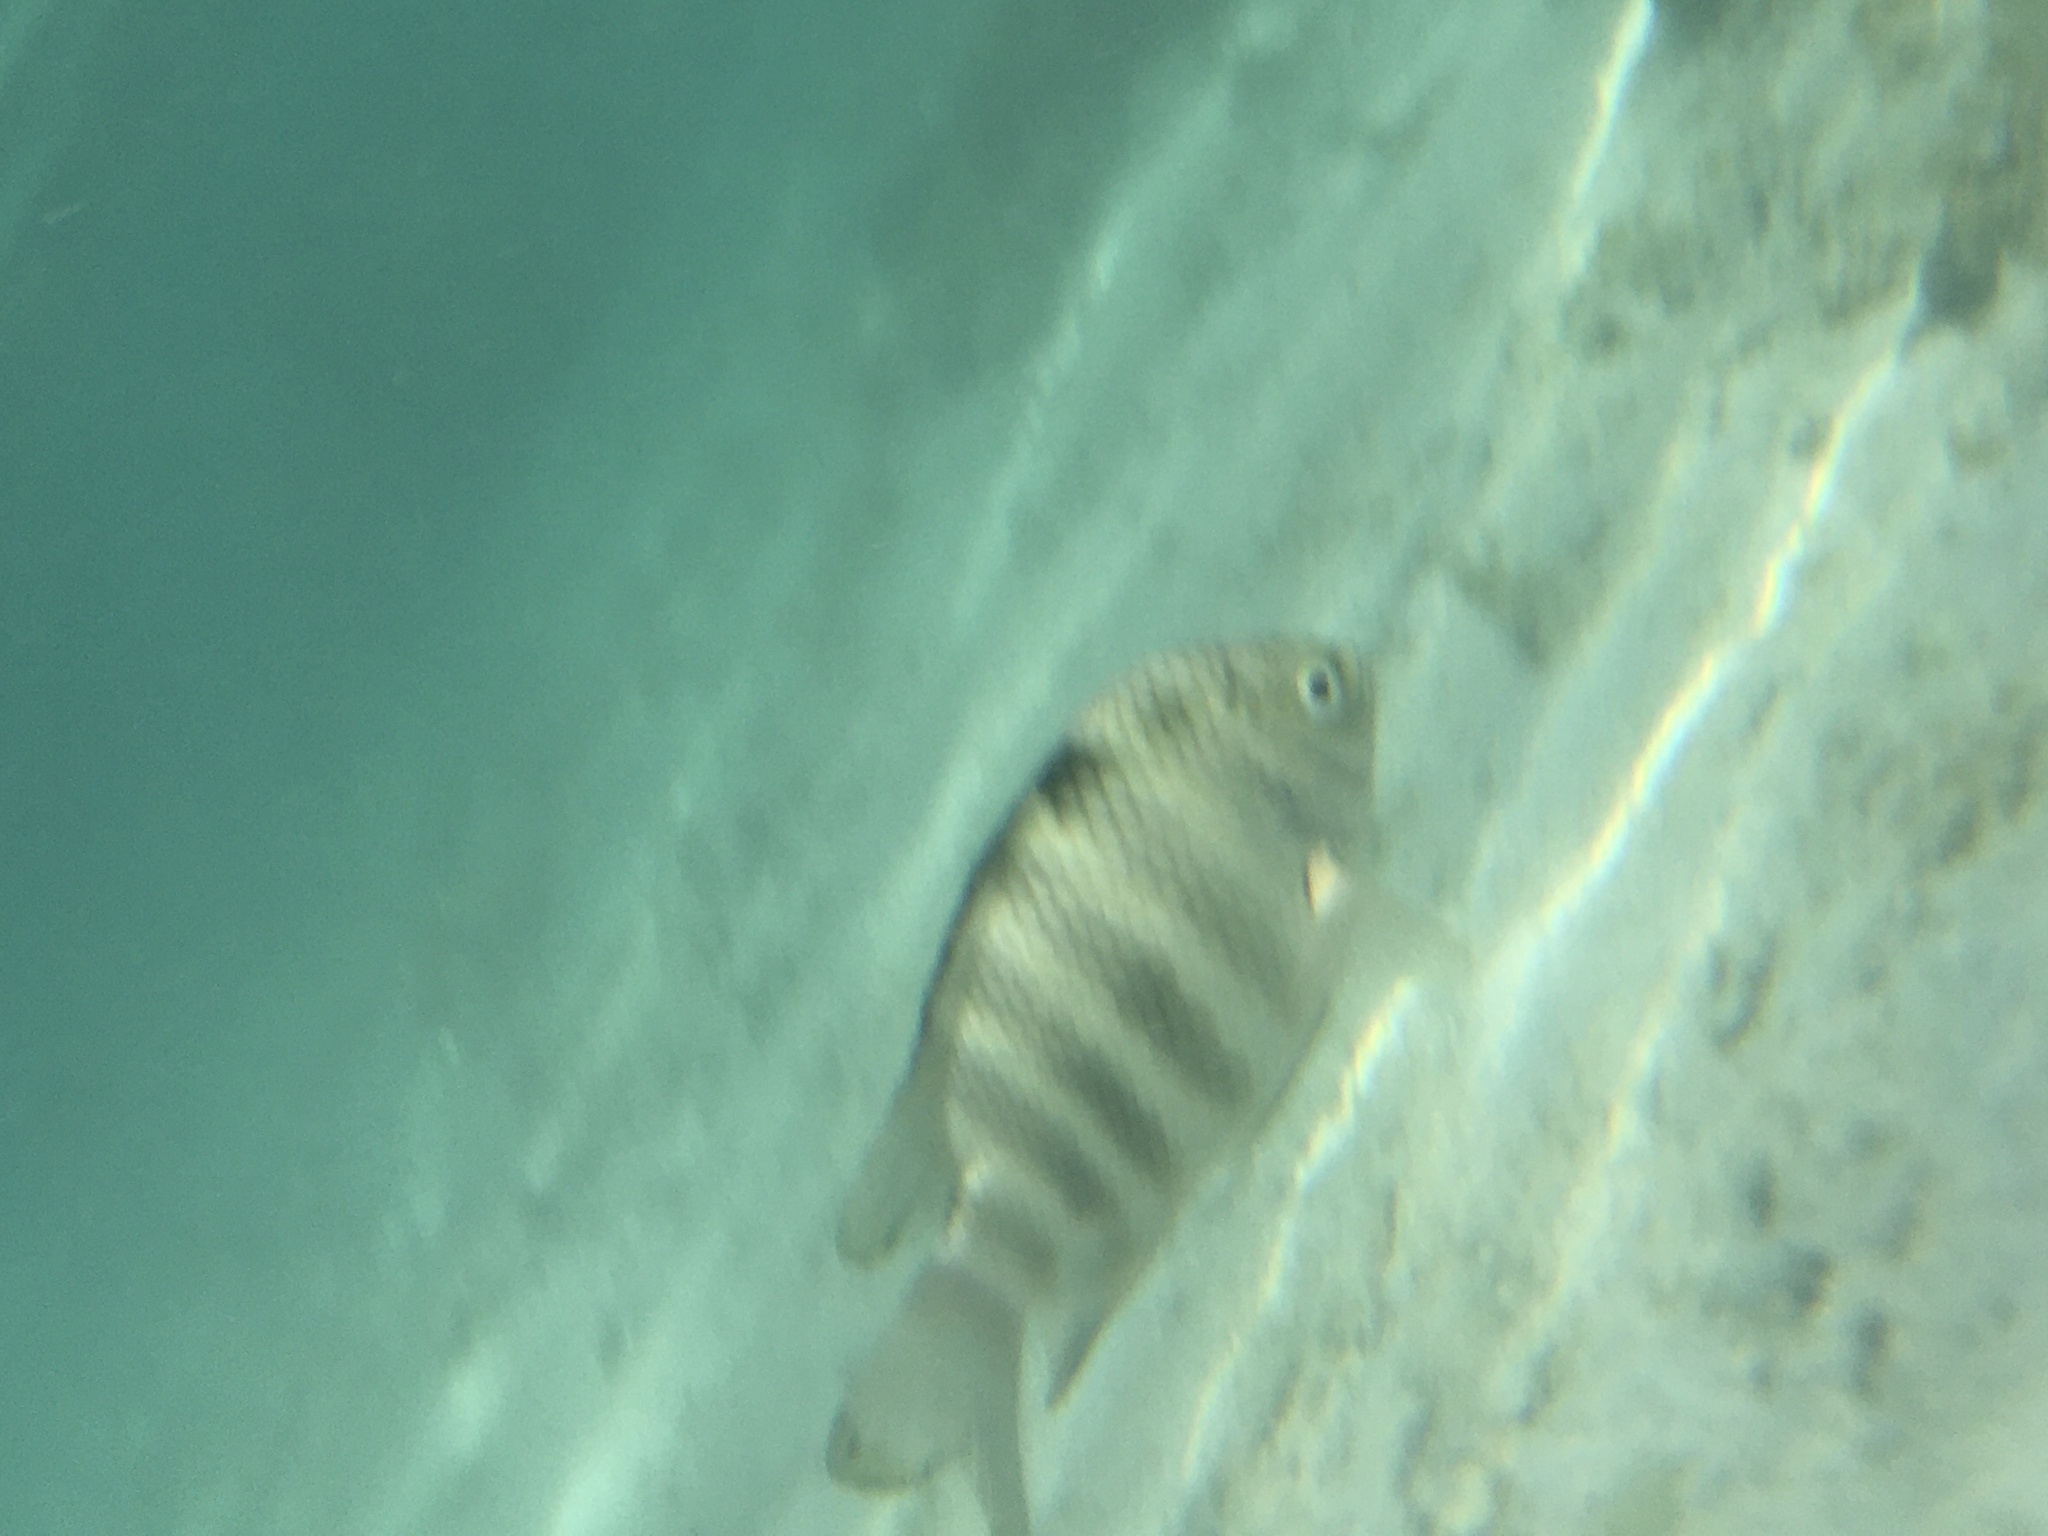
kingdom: Animalia
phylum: Chordata
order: Perciformes
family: Pomacentridae
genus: Abudefduf
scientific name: Abudefduf septemfasciatus
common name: Banded sergeant
